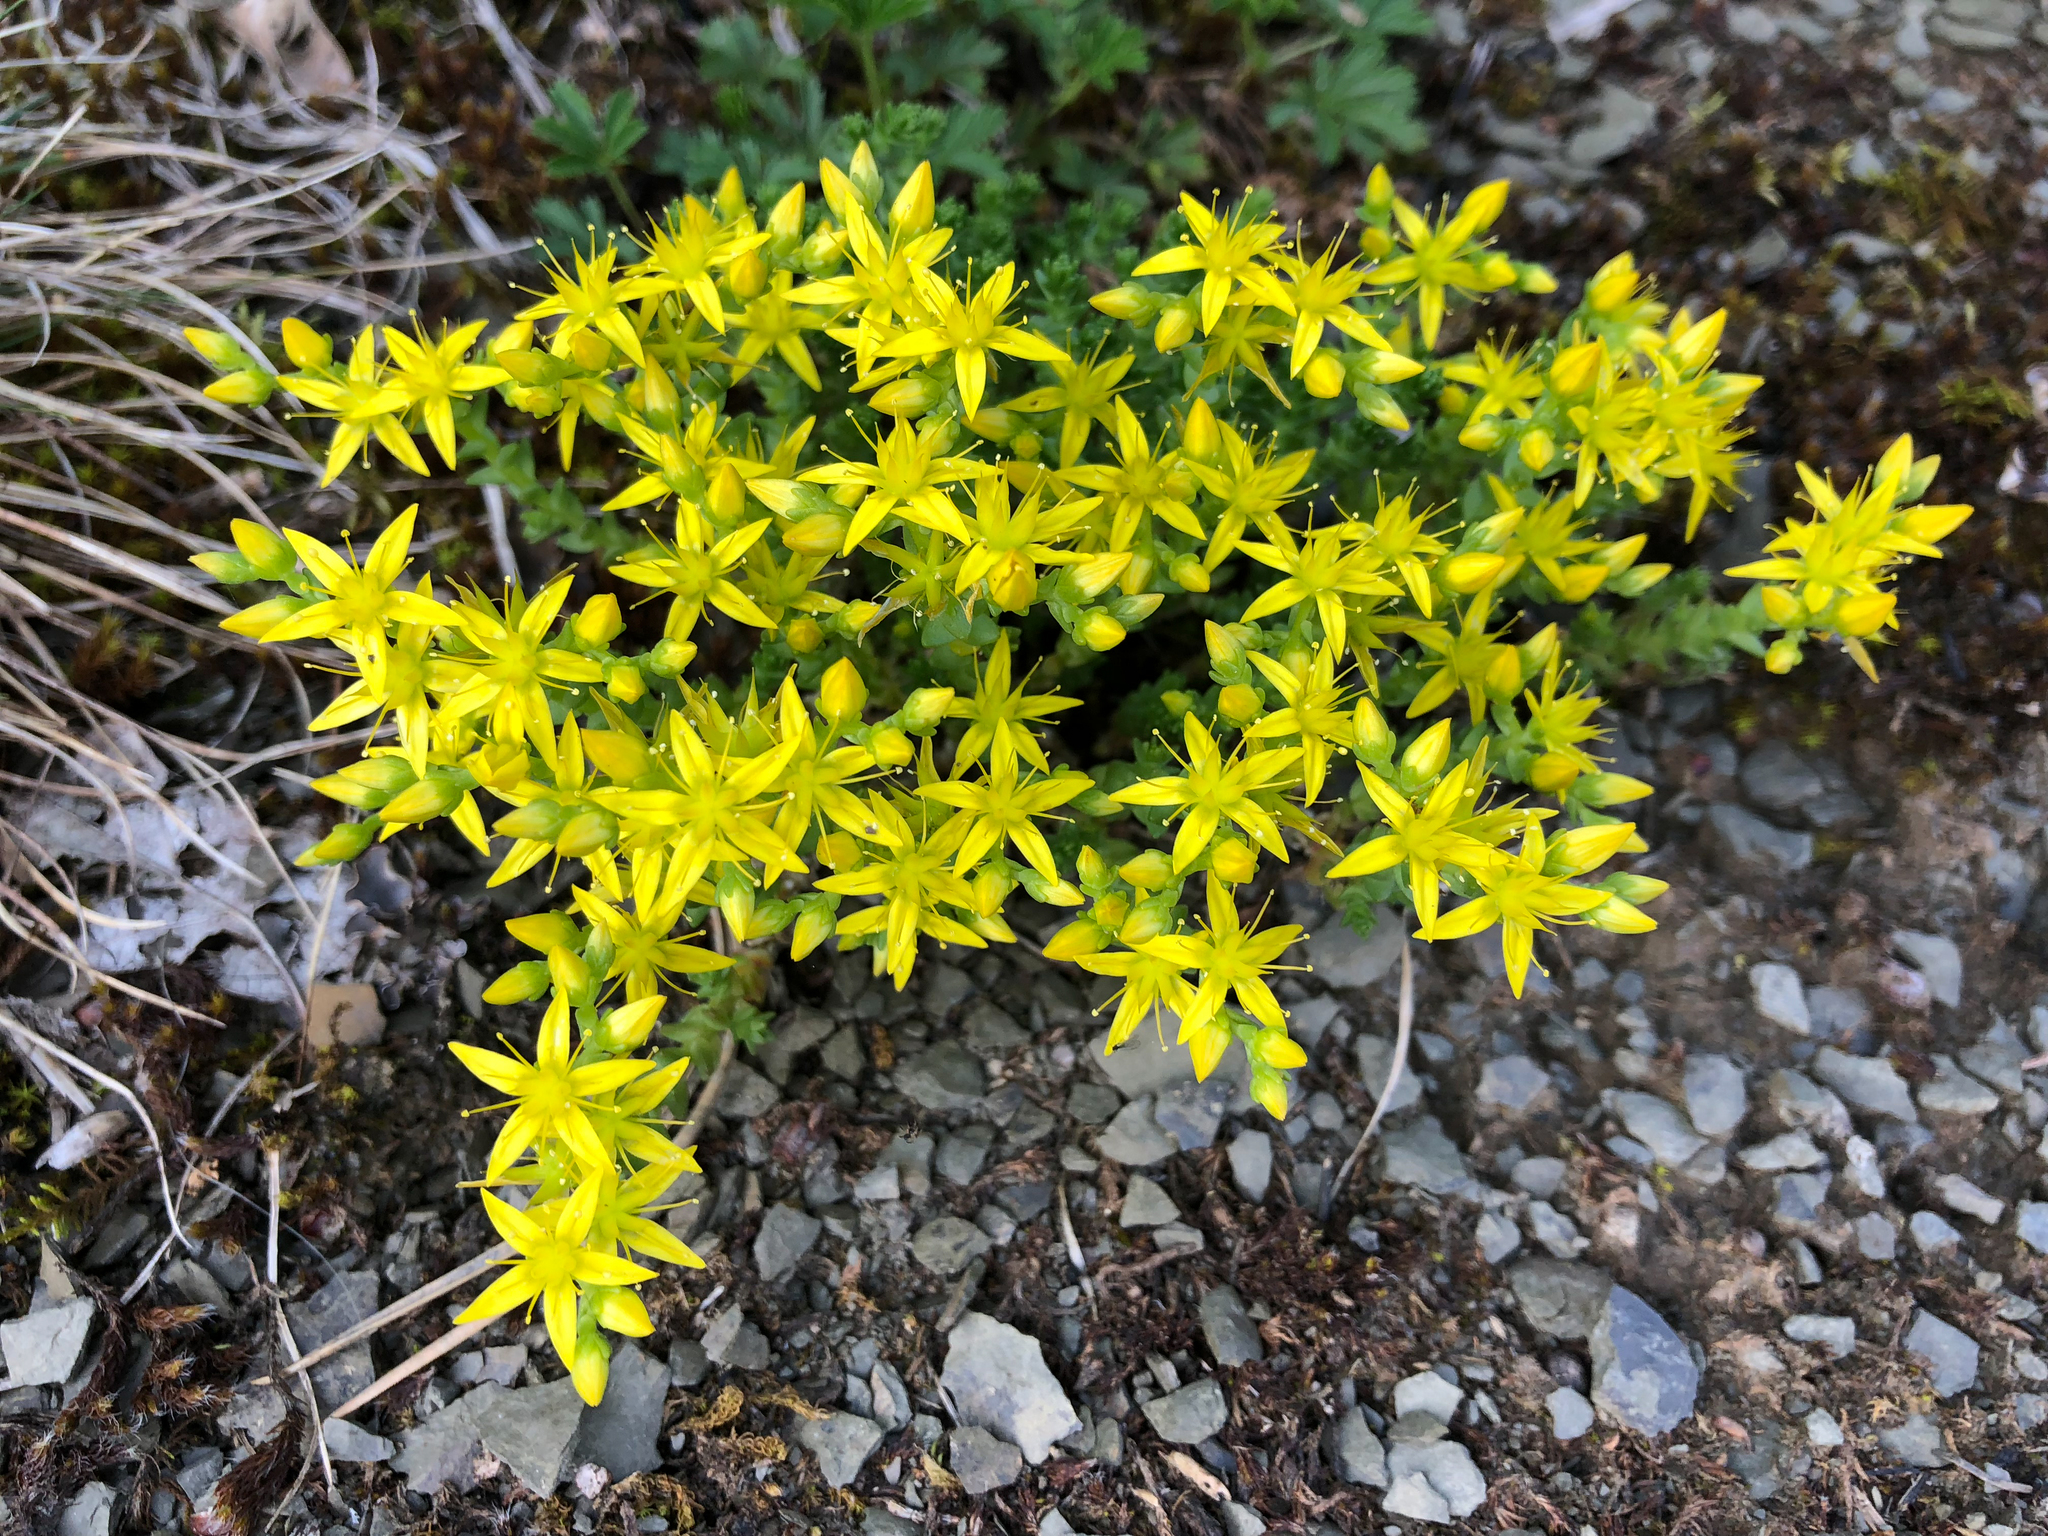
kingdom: Plantae
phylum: Tracheophyta
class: Magnoliopsida
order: Saxifragales
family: Crassulaceae
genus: Sedum
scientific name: Sedum acre
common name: Biting stonecrop
